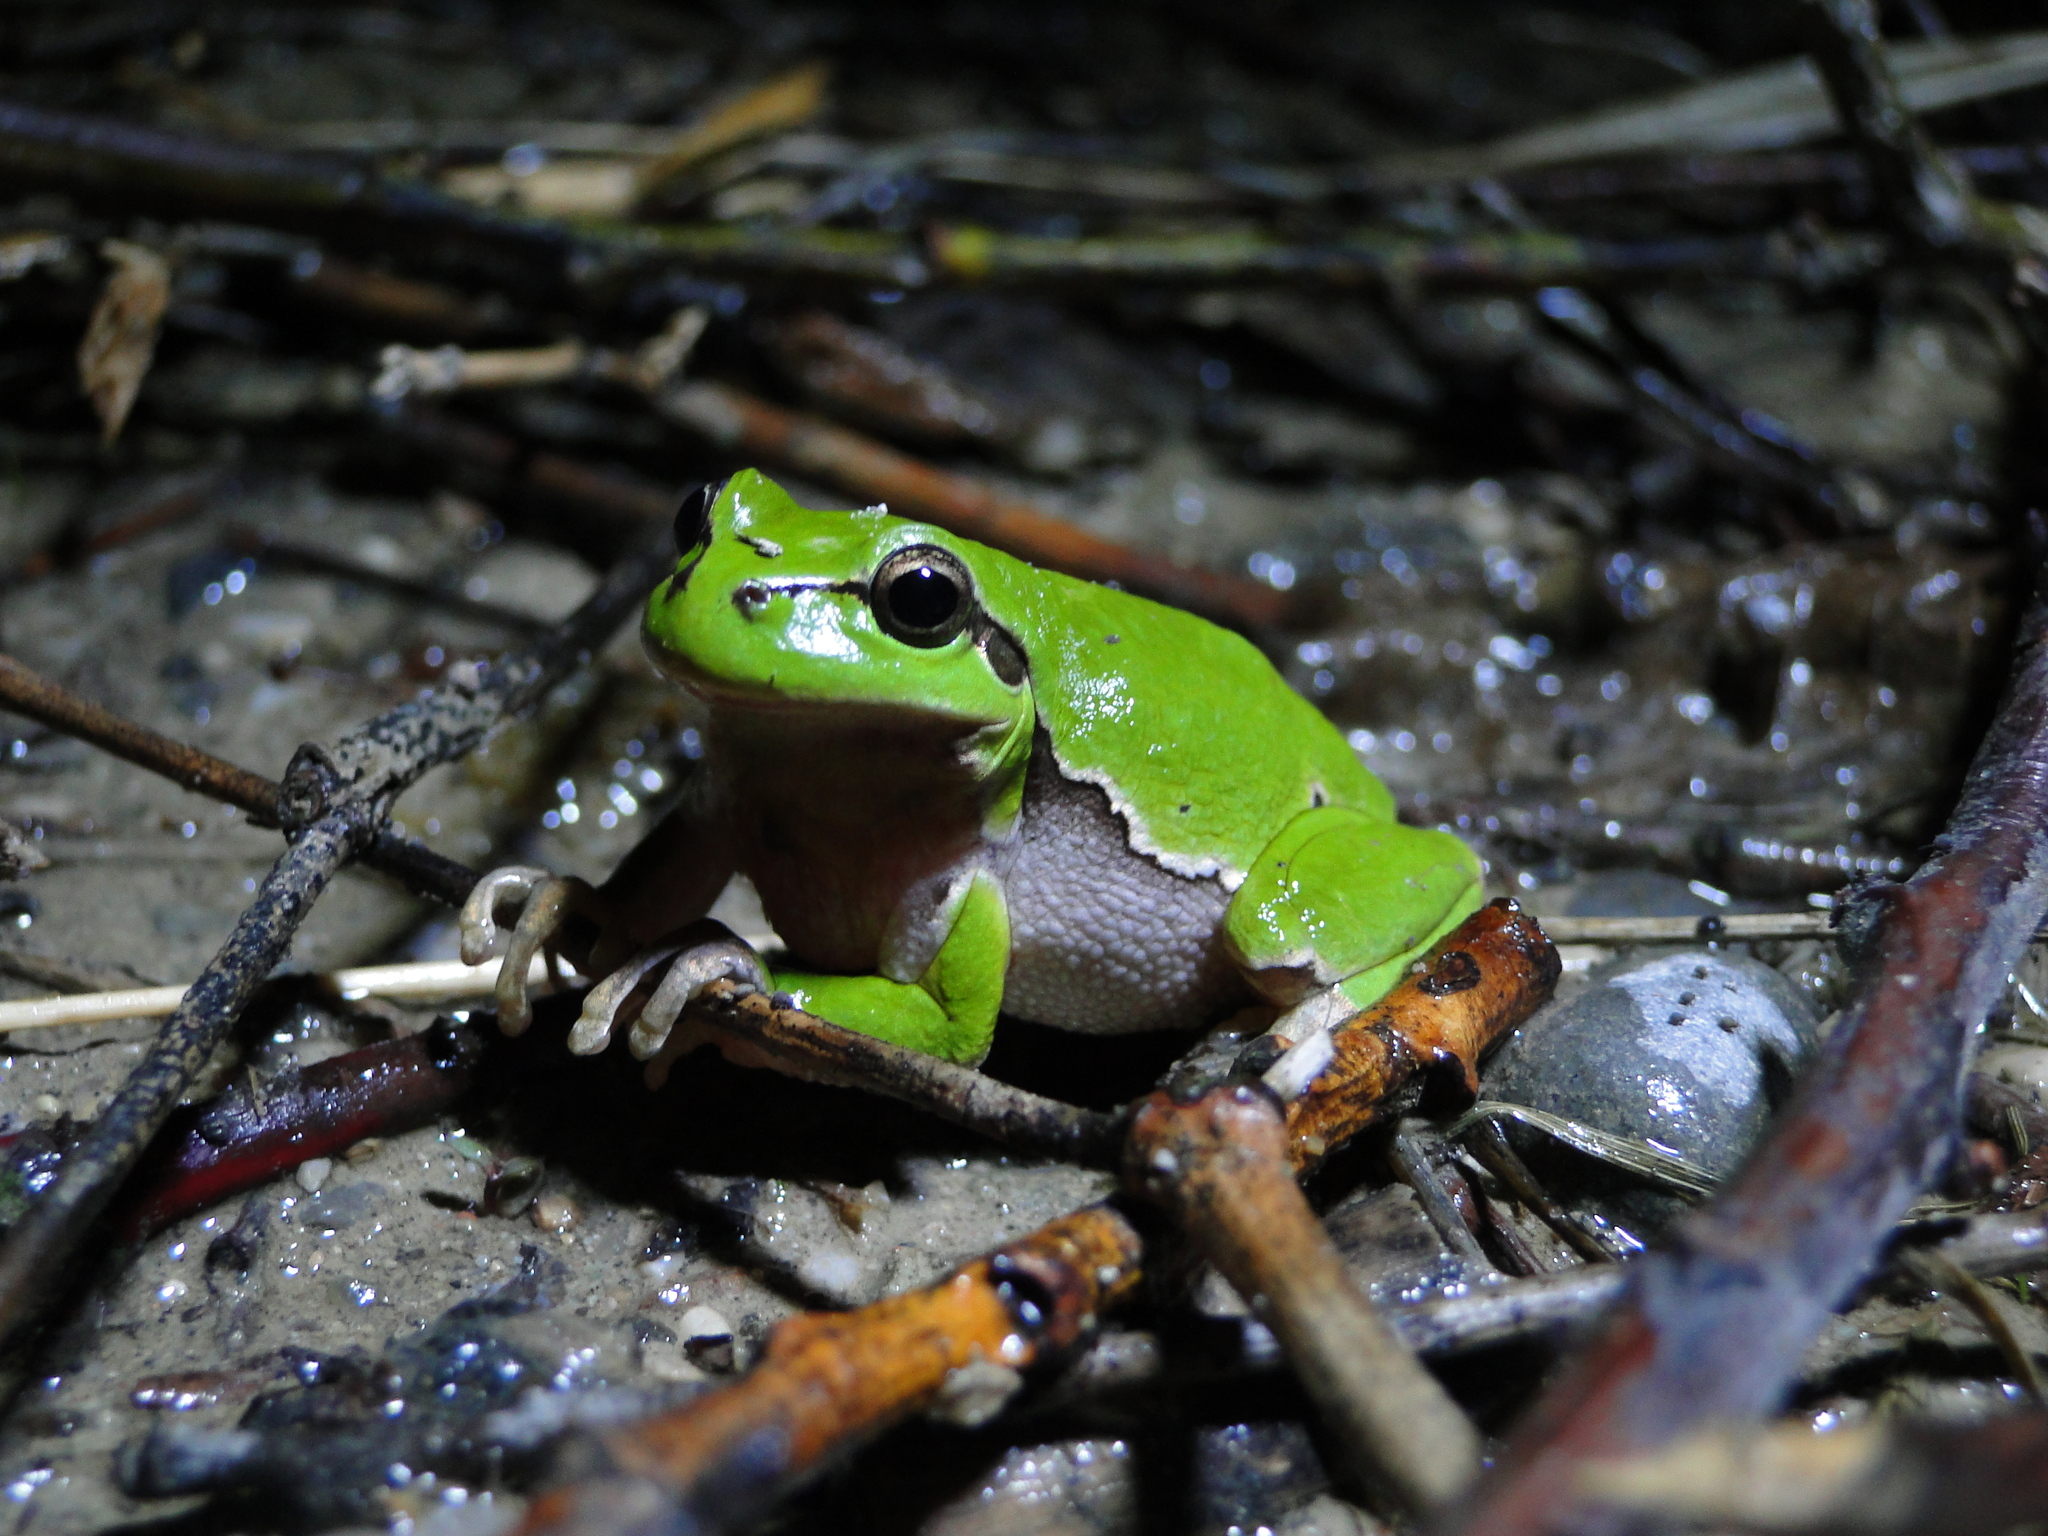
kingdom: Animalia
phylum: Chordata
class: Amphibia
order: Anura
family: Hylidae
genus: Hyla
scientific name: Hyla arborea
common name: Common tree frog
